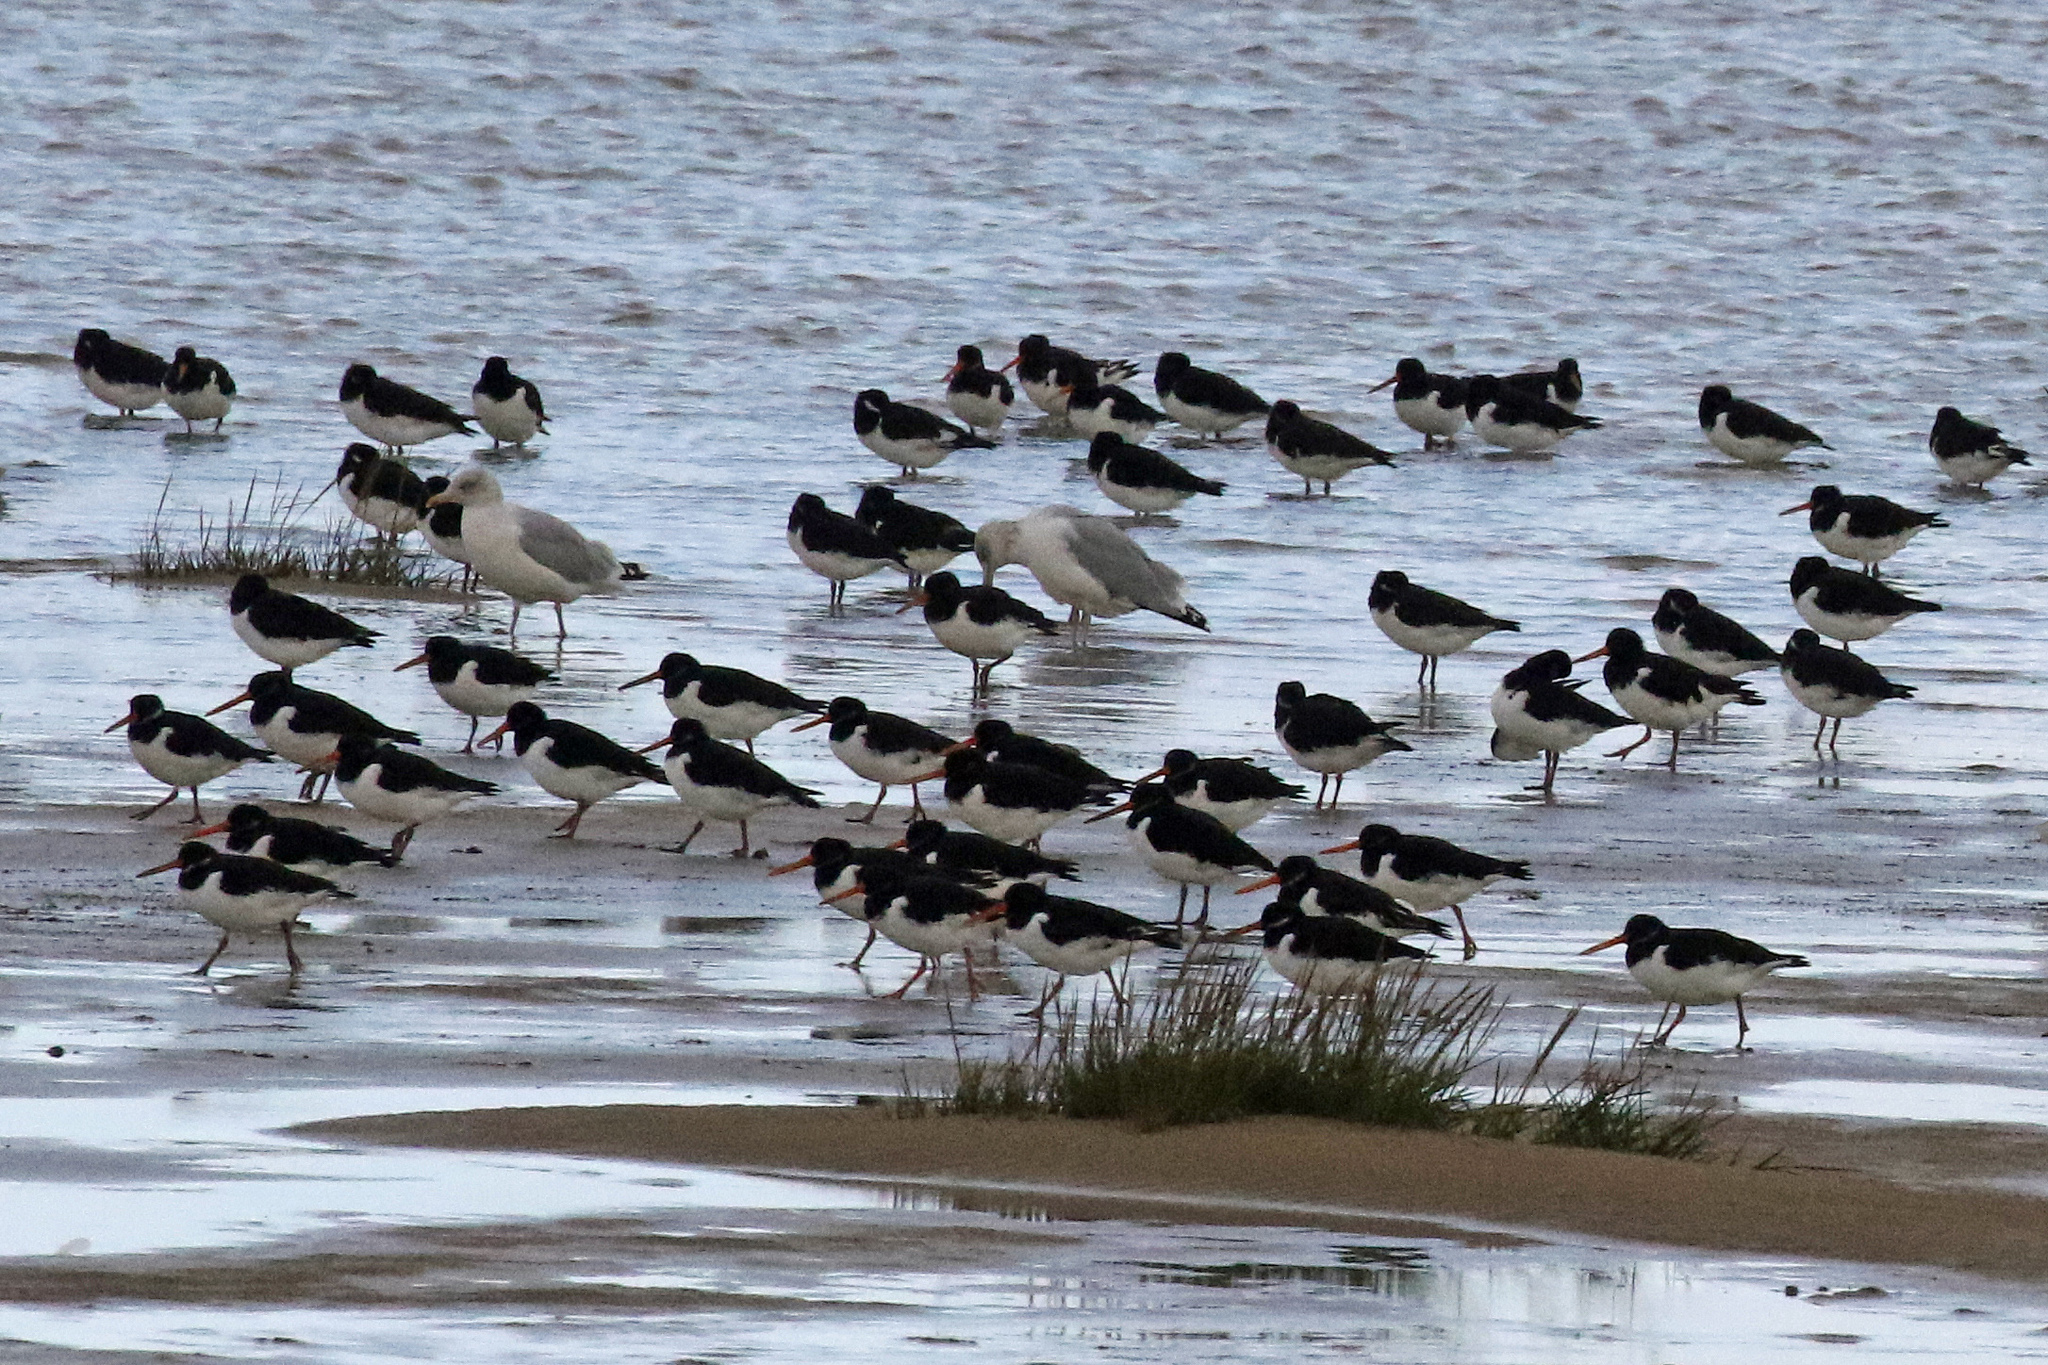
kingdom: Animalia
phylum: Chordata
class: Aves
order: Charadriiformes
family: Haematopodidae
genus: Haematopus
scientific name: Haematopus ostralegus
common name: Eurasian oystercatcher
